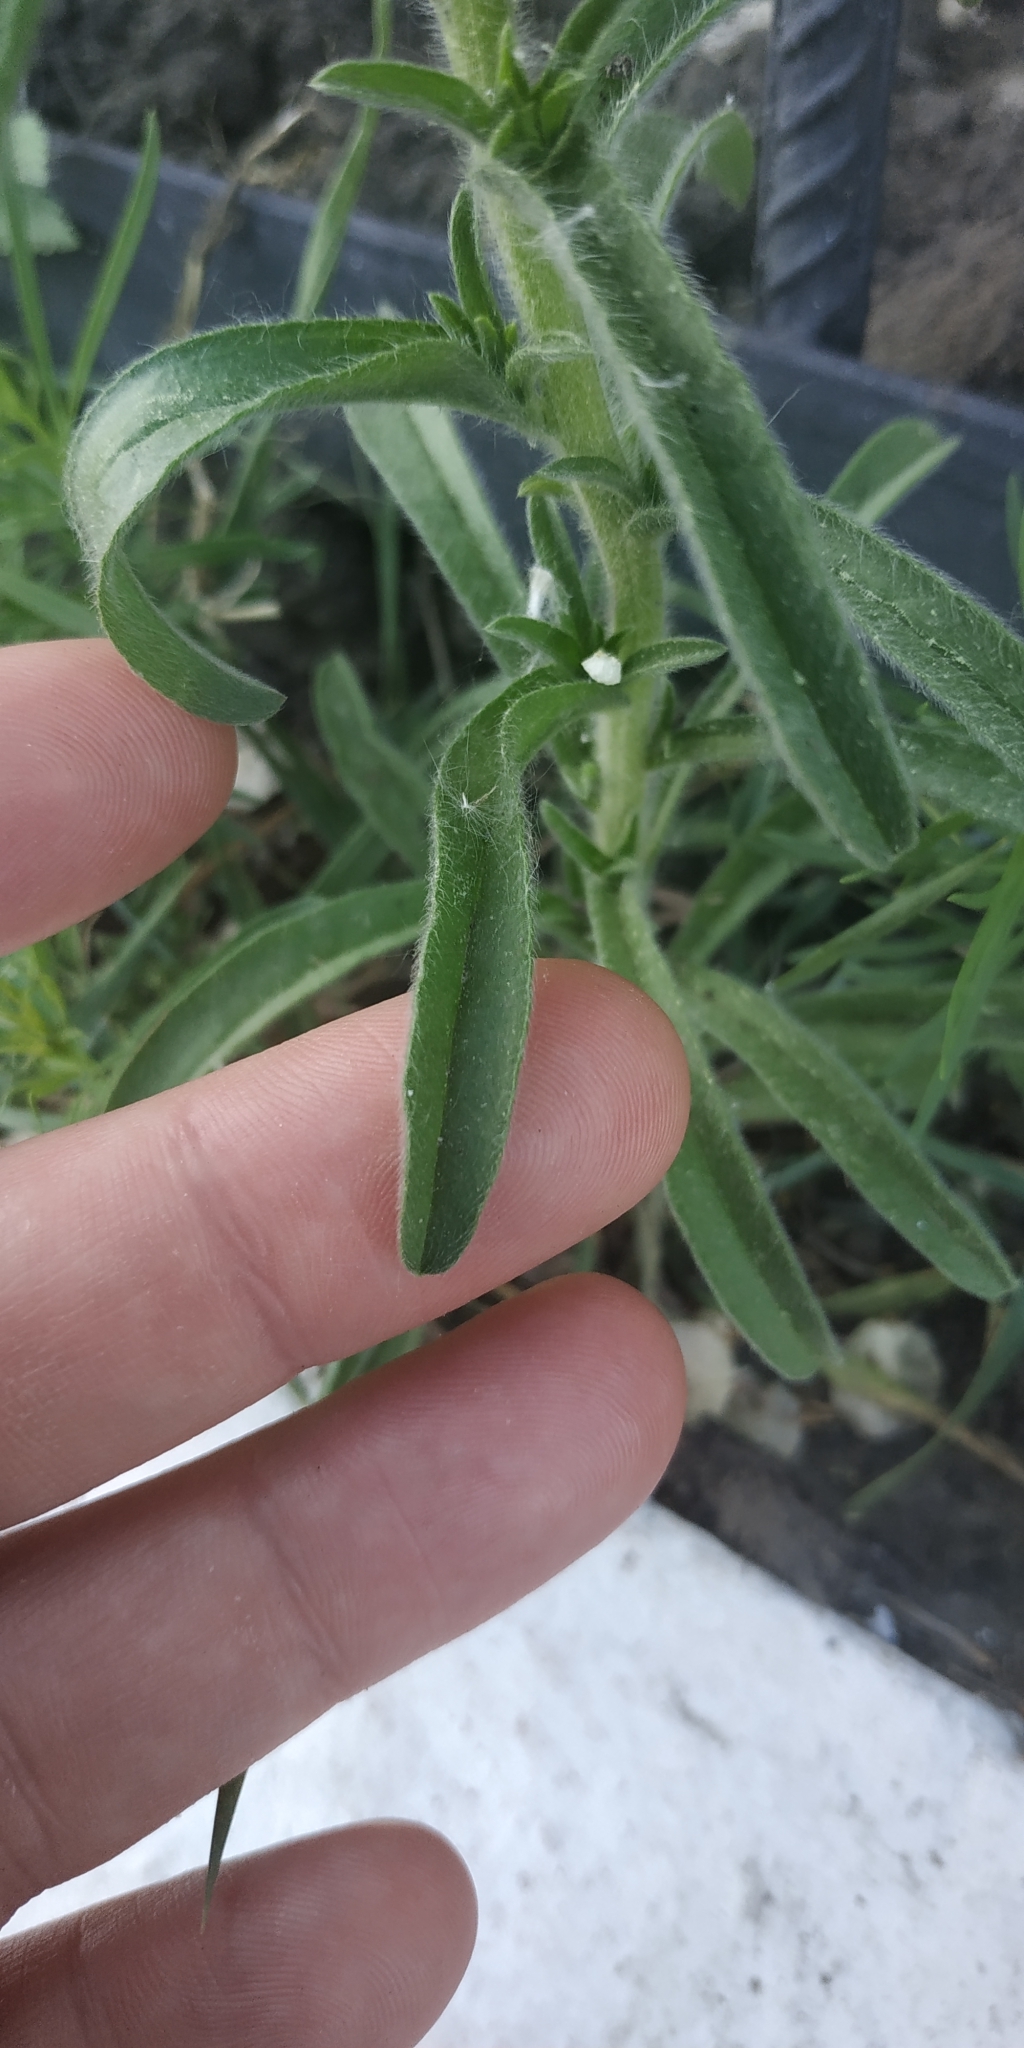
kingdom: Plantae
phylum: Tracheophyta
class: Magnoliopsida
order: Boraginales
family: Boraginaceae
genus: Lappula
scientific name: Lappula squarrosa
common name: European stickseed
